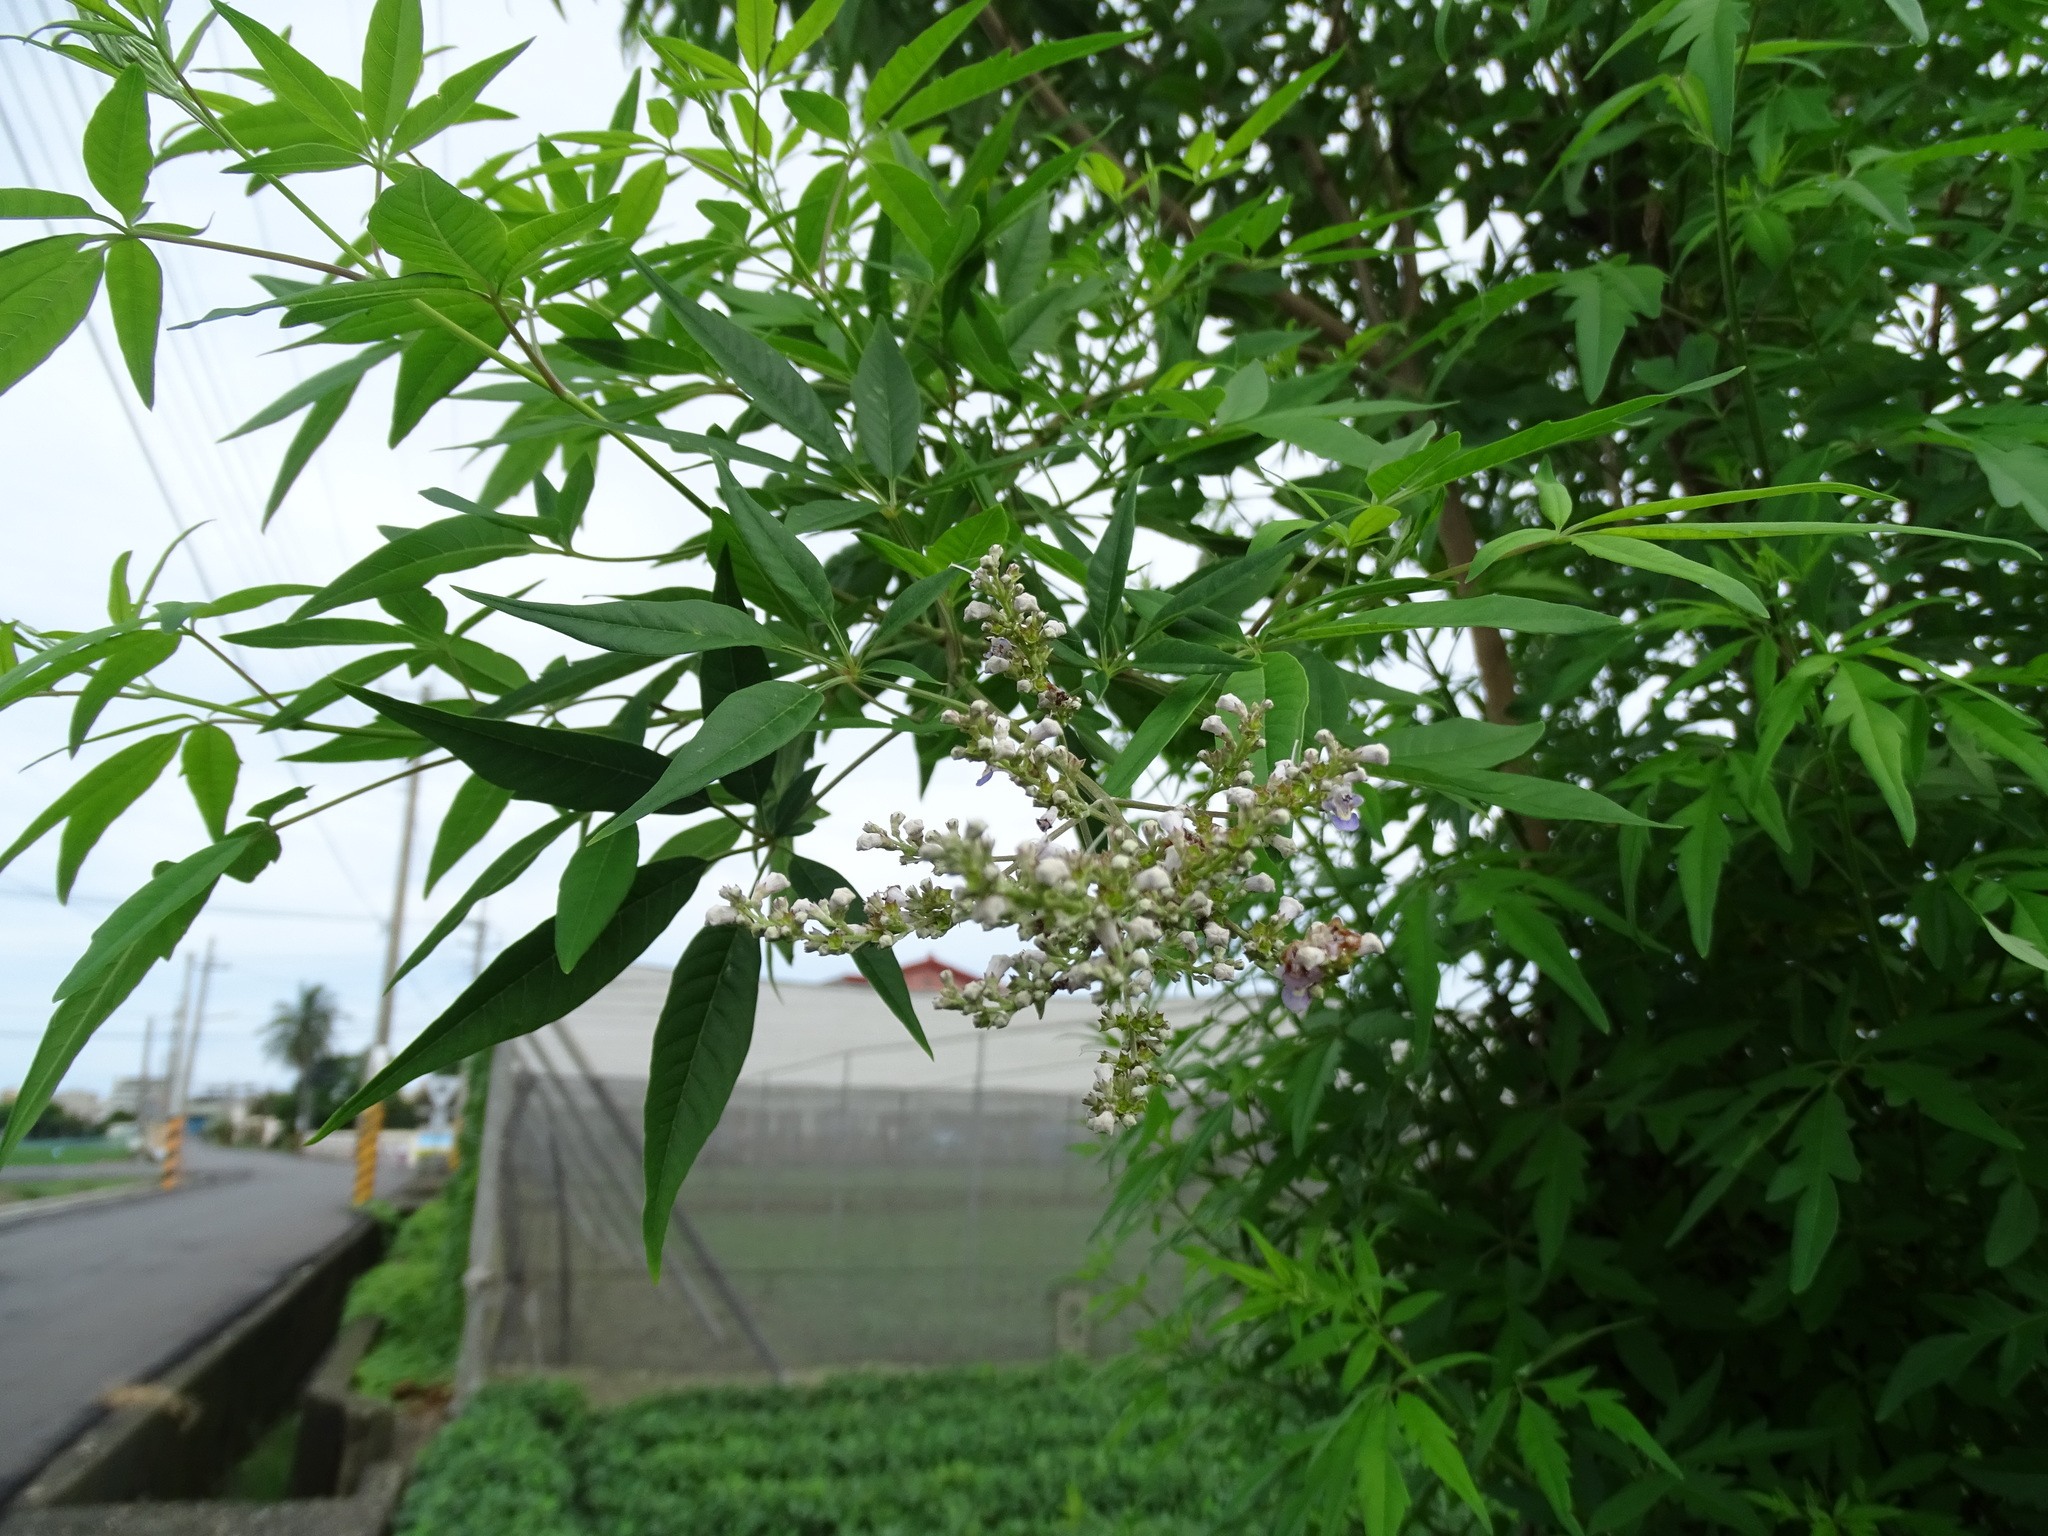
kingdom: Plantae
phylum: Tracheophyta
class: Magnoliopsida
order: Lamiales
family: Lamiaceae
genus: Vitex
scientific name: Vitex negundo
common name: Chinese chastetree
